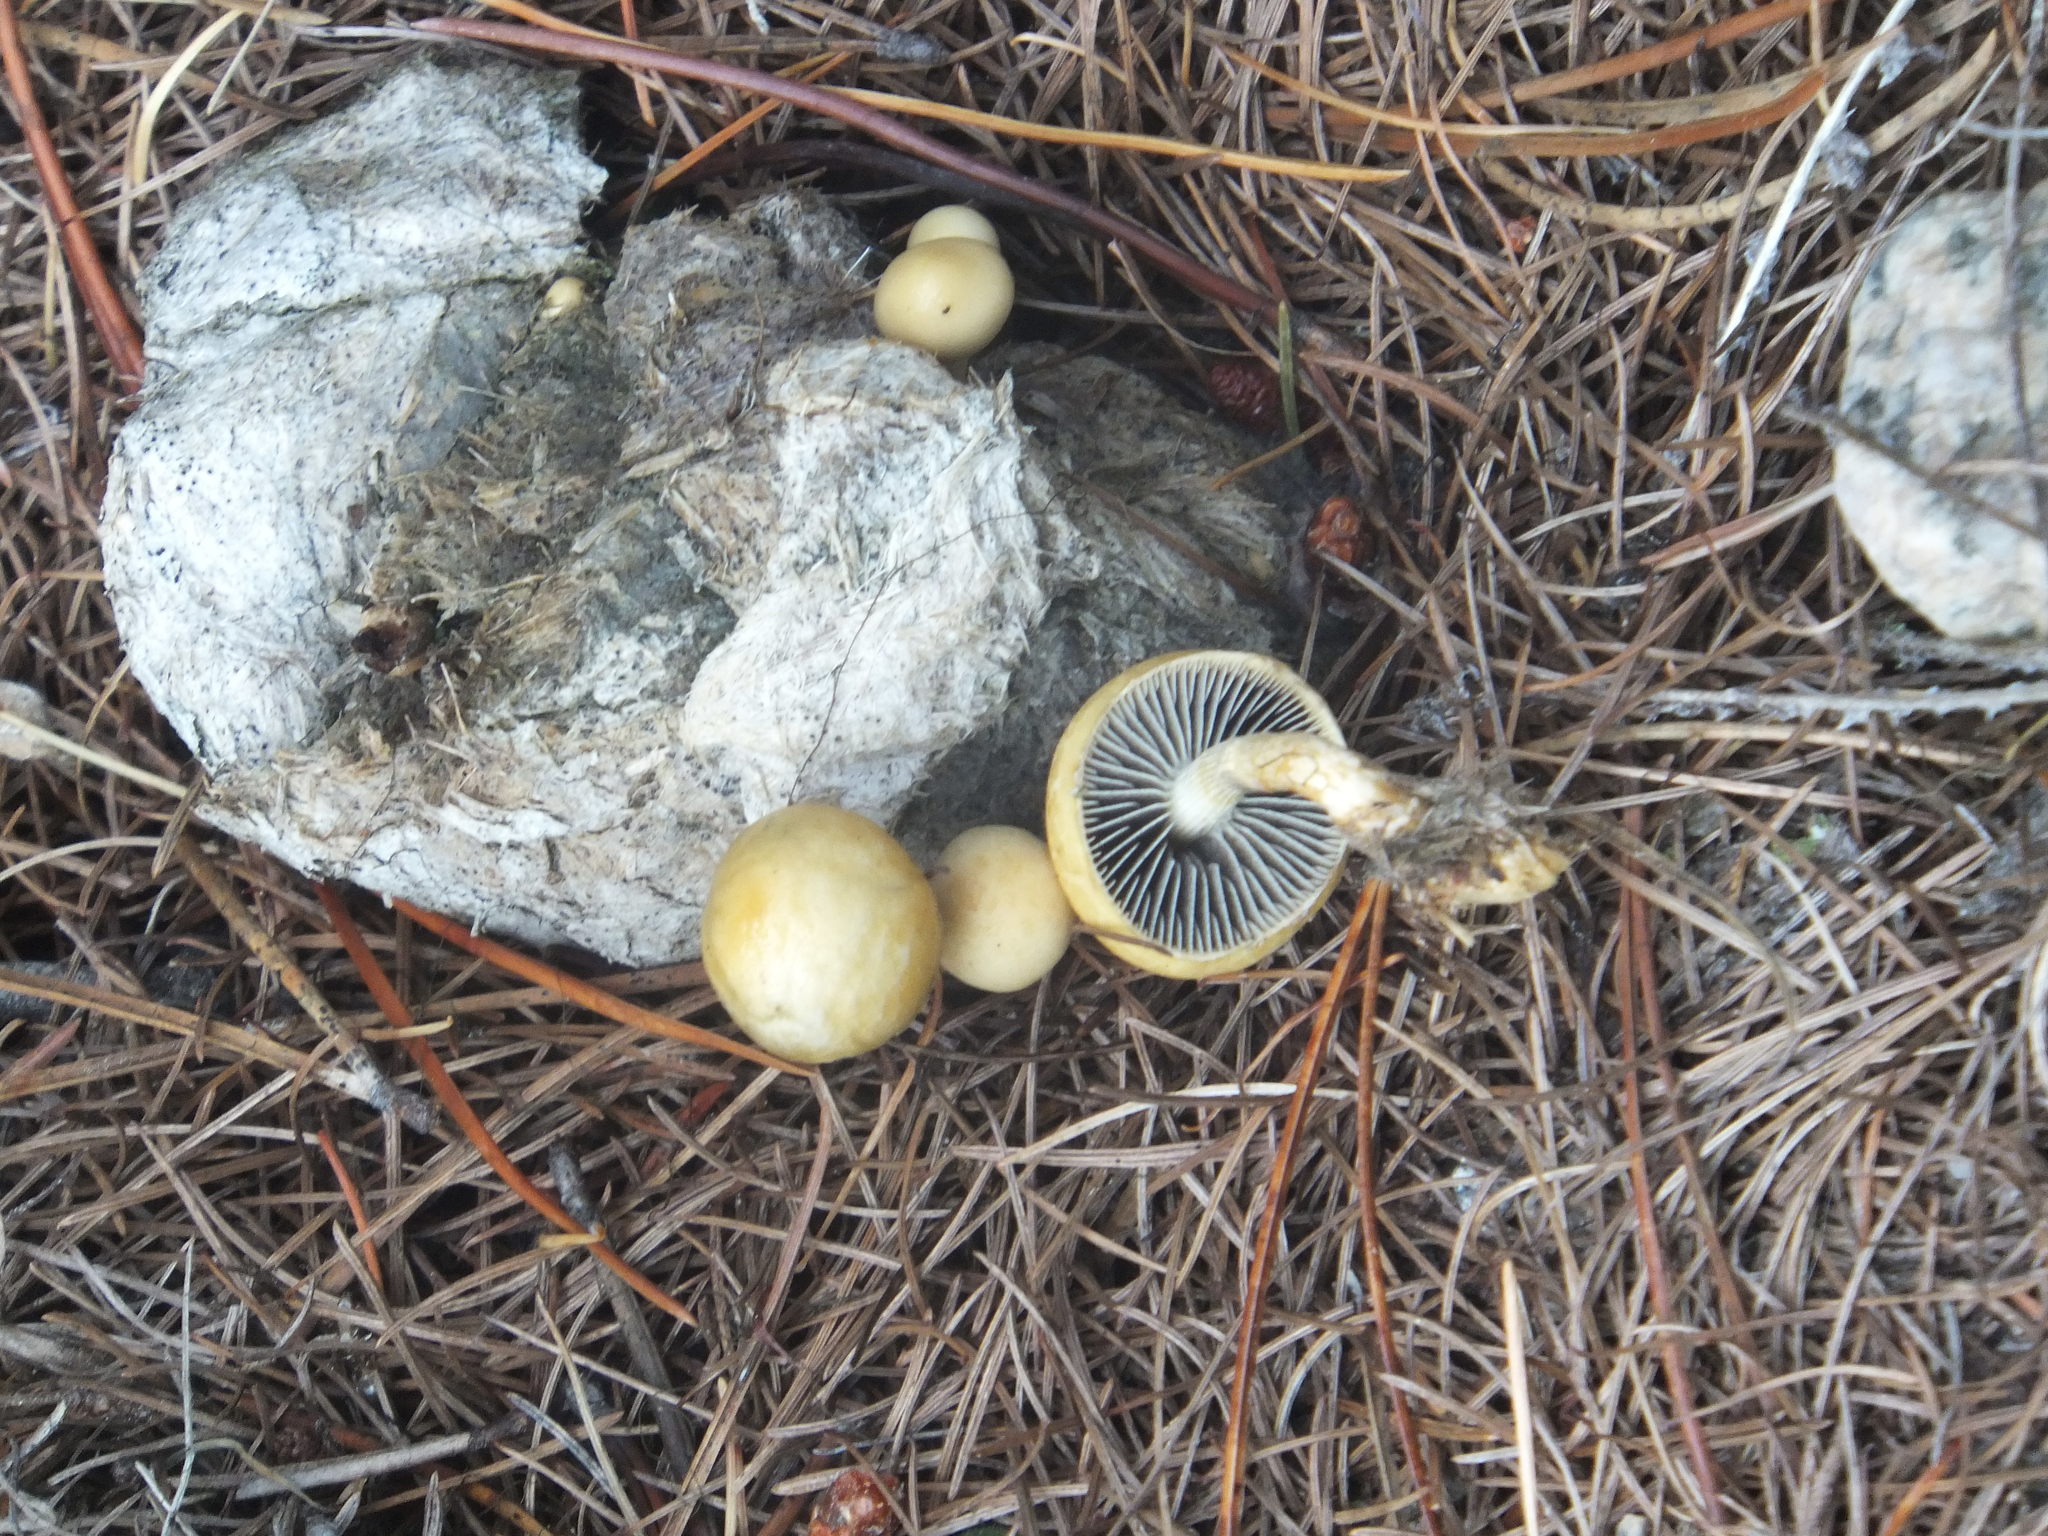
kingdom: Fungi
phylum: Basidiomycota
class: Agaricomycetes
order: Agaricales
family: Strophariaceae
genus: Protostropharia
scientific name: Protostropharia semiglobata
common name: Dung roundhead
